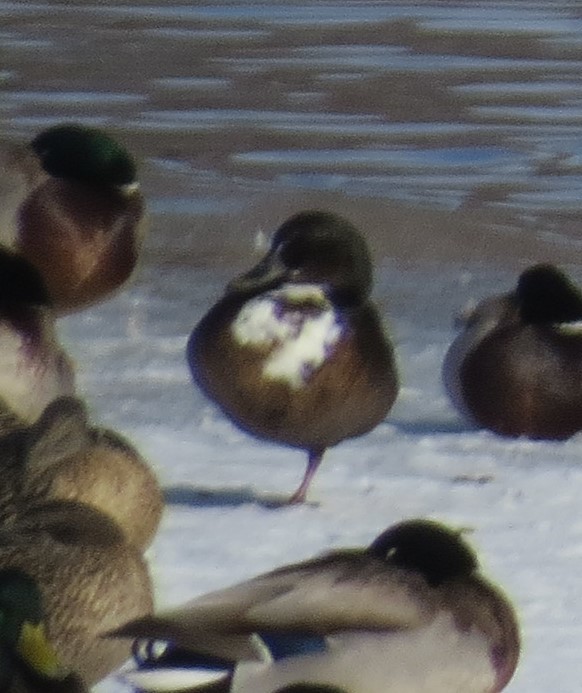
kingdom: Animalia
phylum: Chordata
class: Aves
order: Anseriformes
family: Anatidae
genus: Anas
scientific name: Anas platyrhynchos
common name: Mallard
